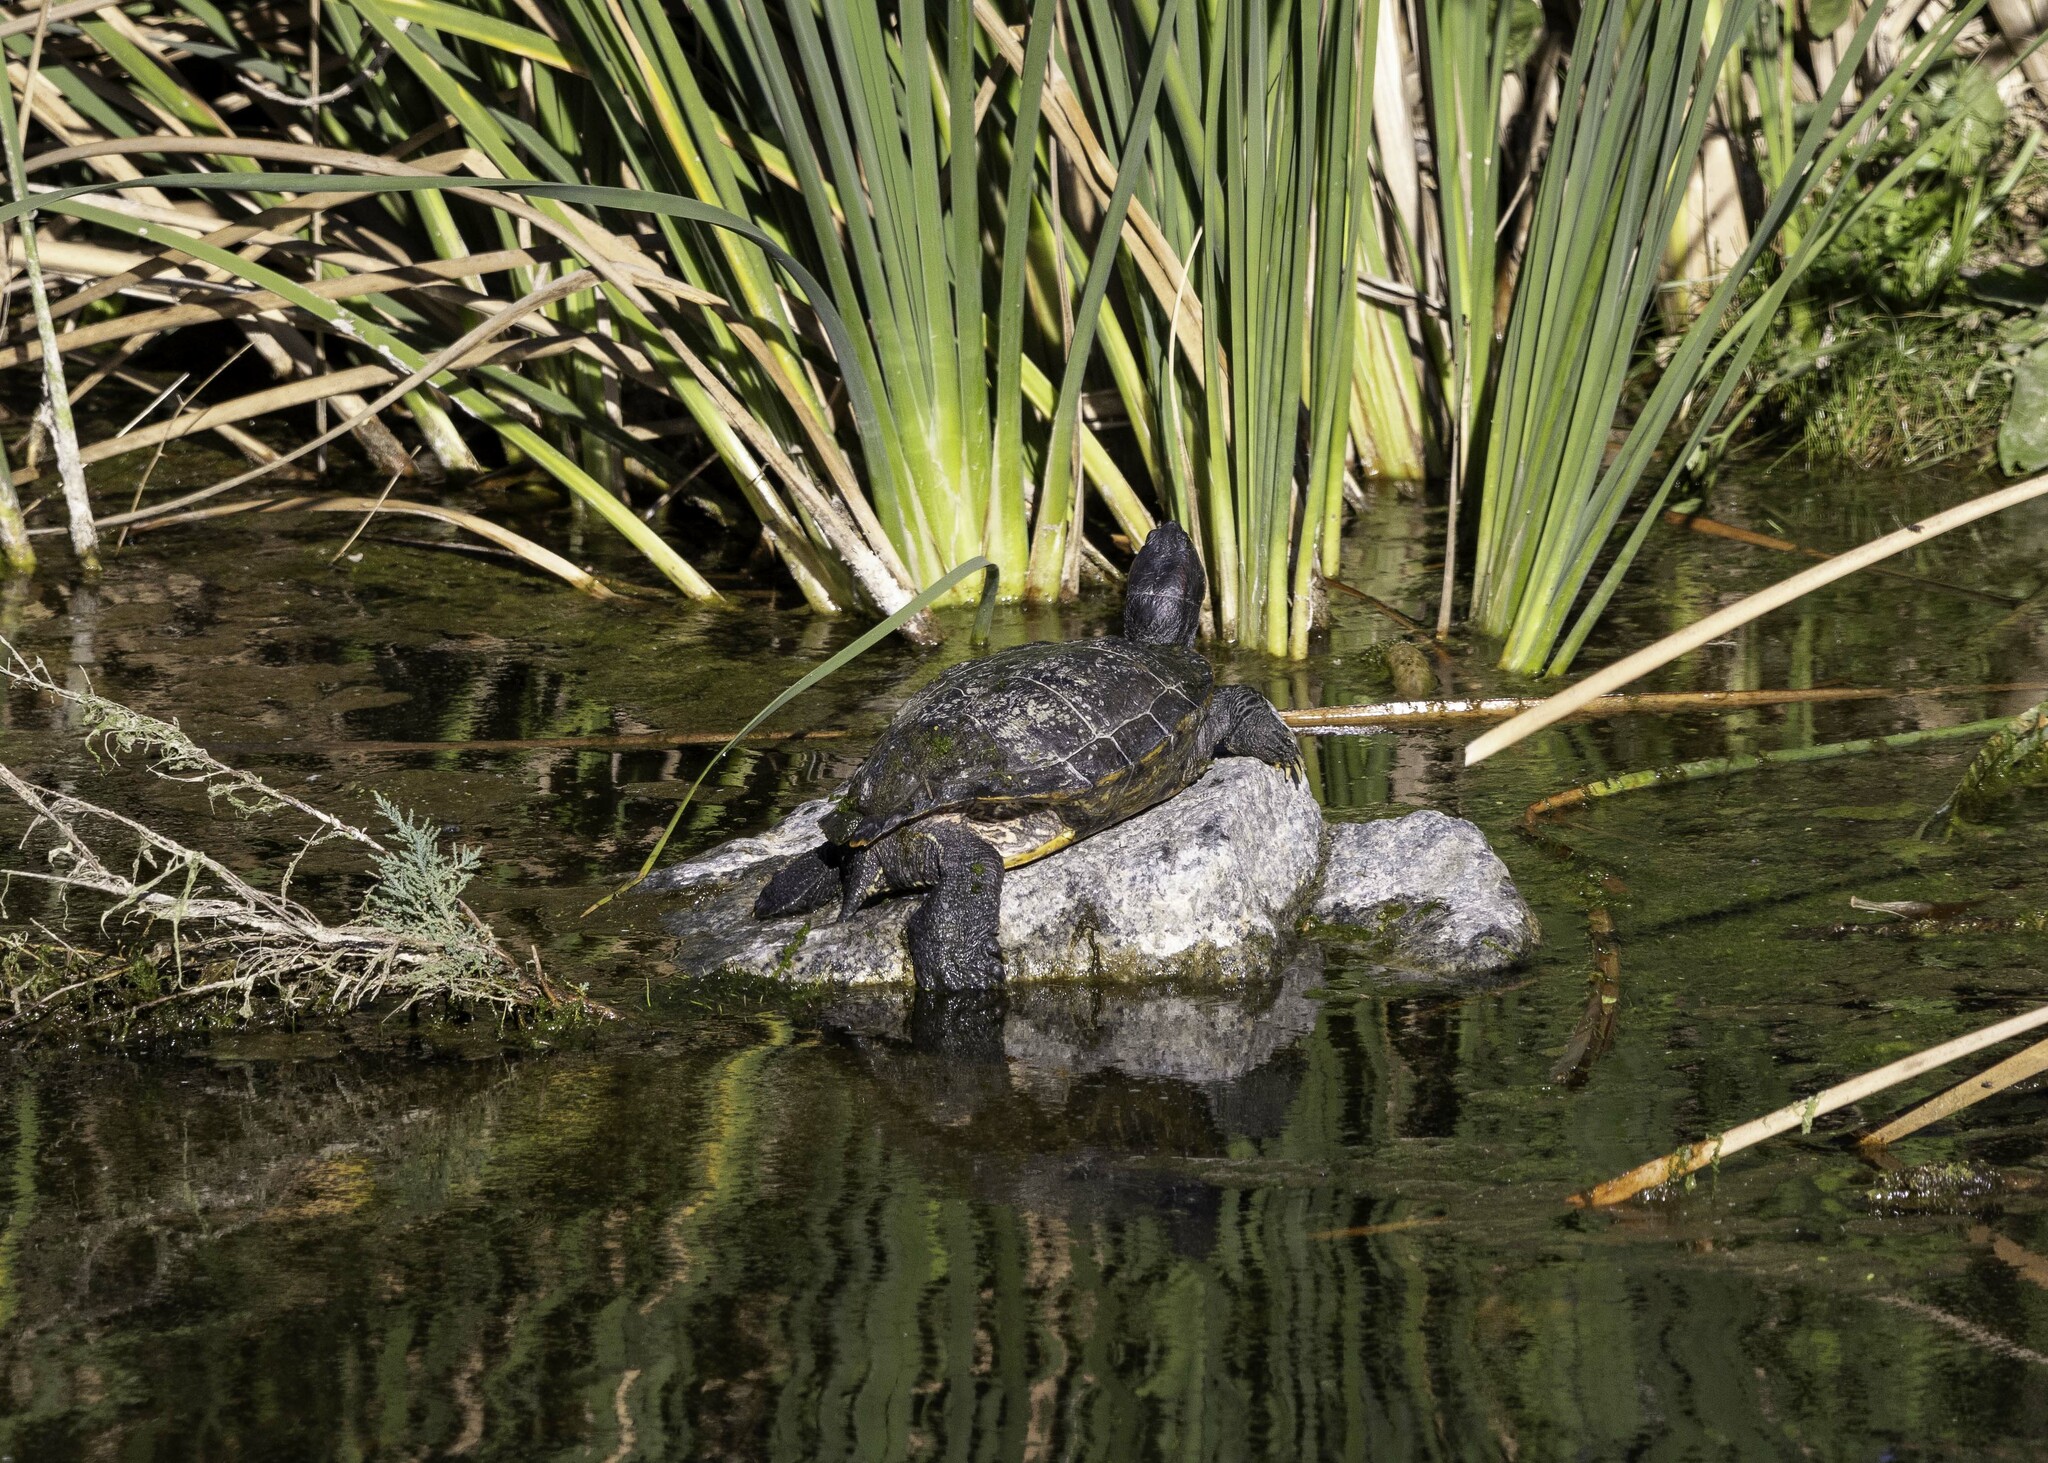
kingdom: Animalia
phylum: Chordata
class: Testudines
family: Emydidae
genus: Trachemys
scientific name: Trachemys scripta
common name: Slider
